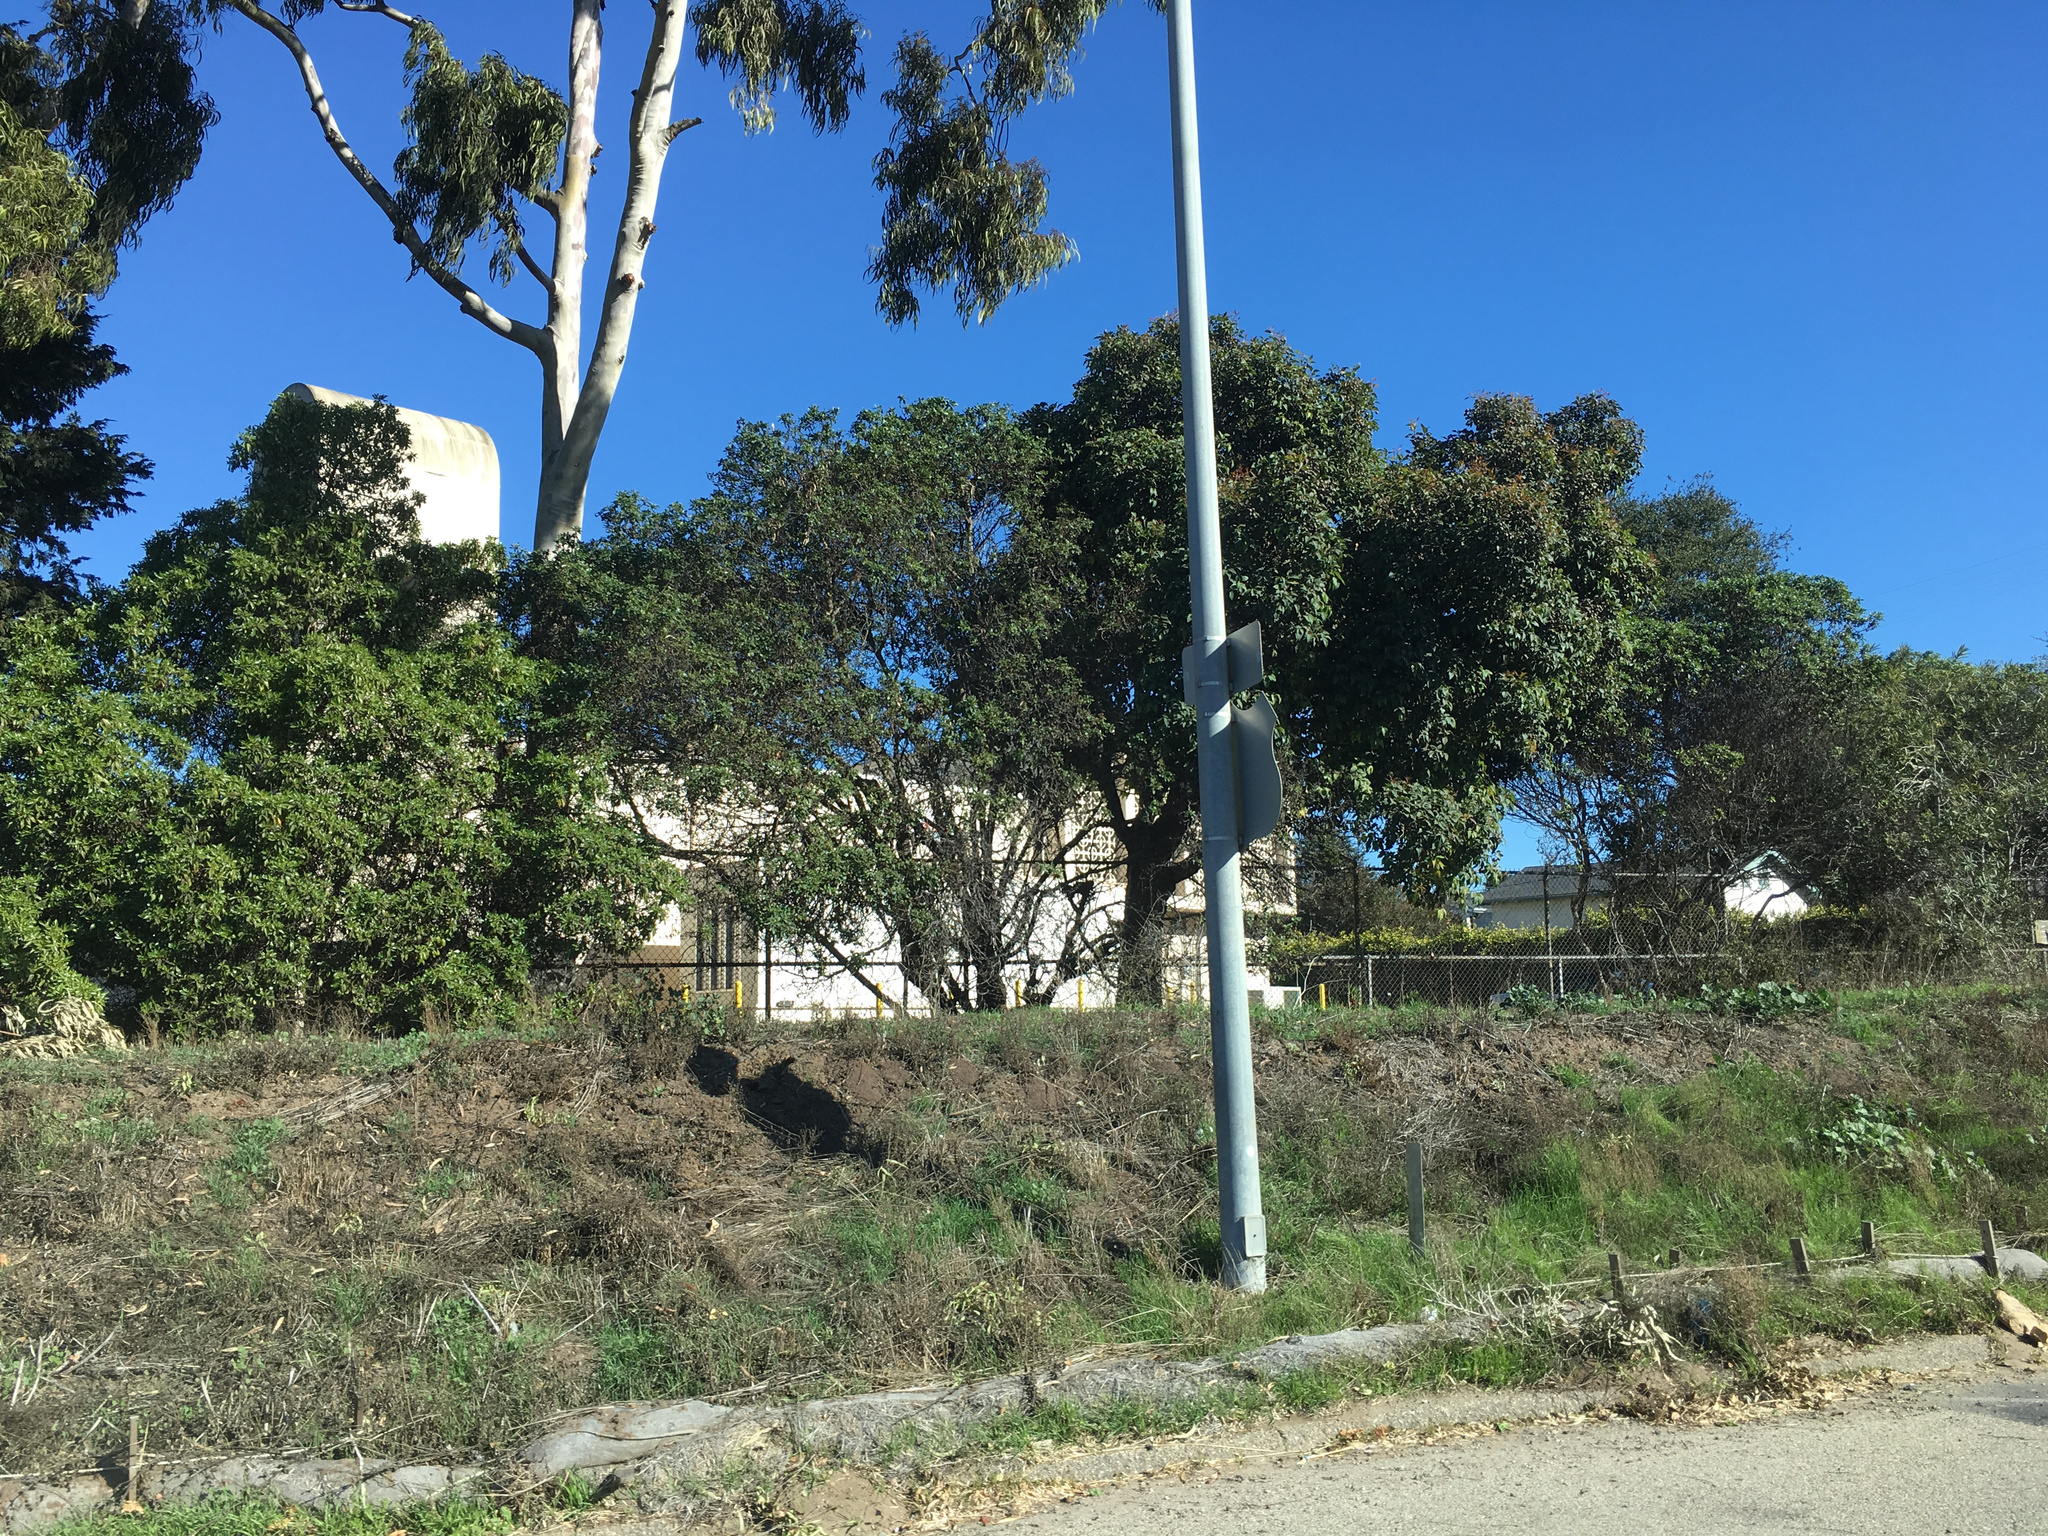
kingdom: Plantae
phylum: Tracheophyta
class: Magnoliopsida
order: Lamiales
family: Scrophulariaceae
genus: Myoporum
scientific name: Myoporum laetum
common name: Ngaio tree
